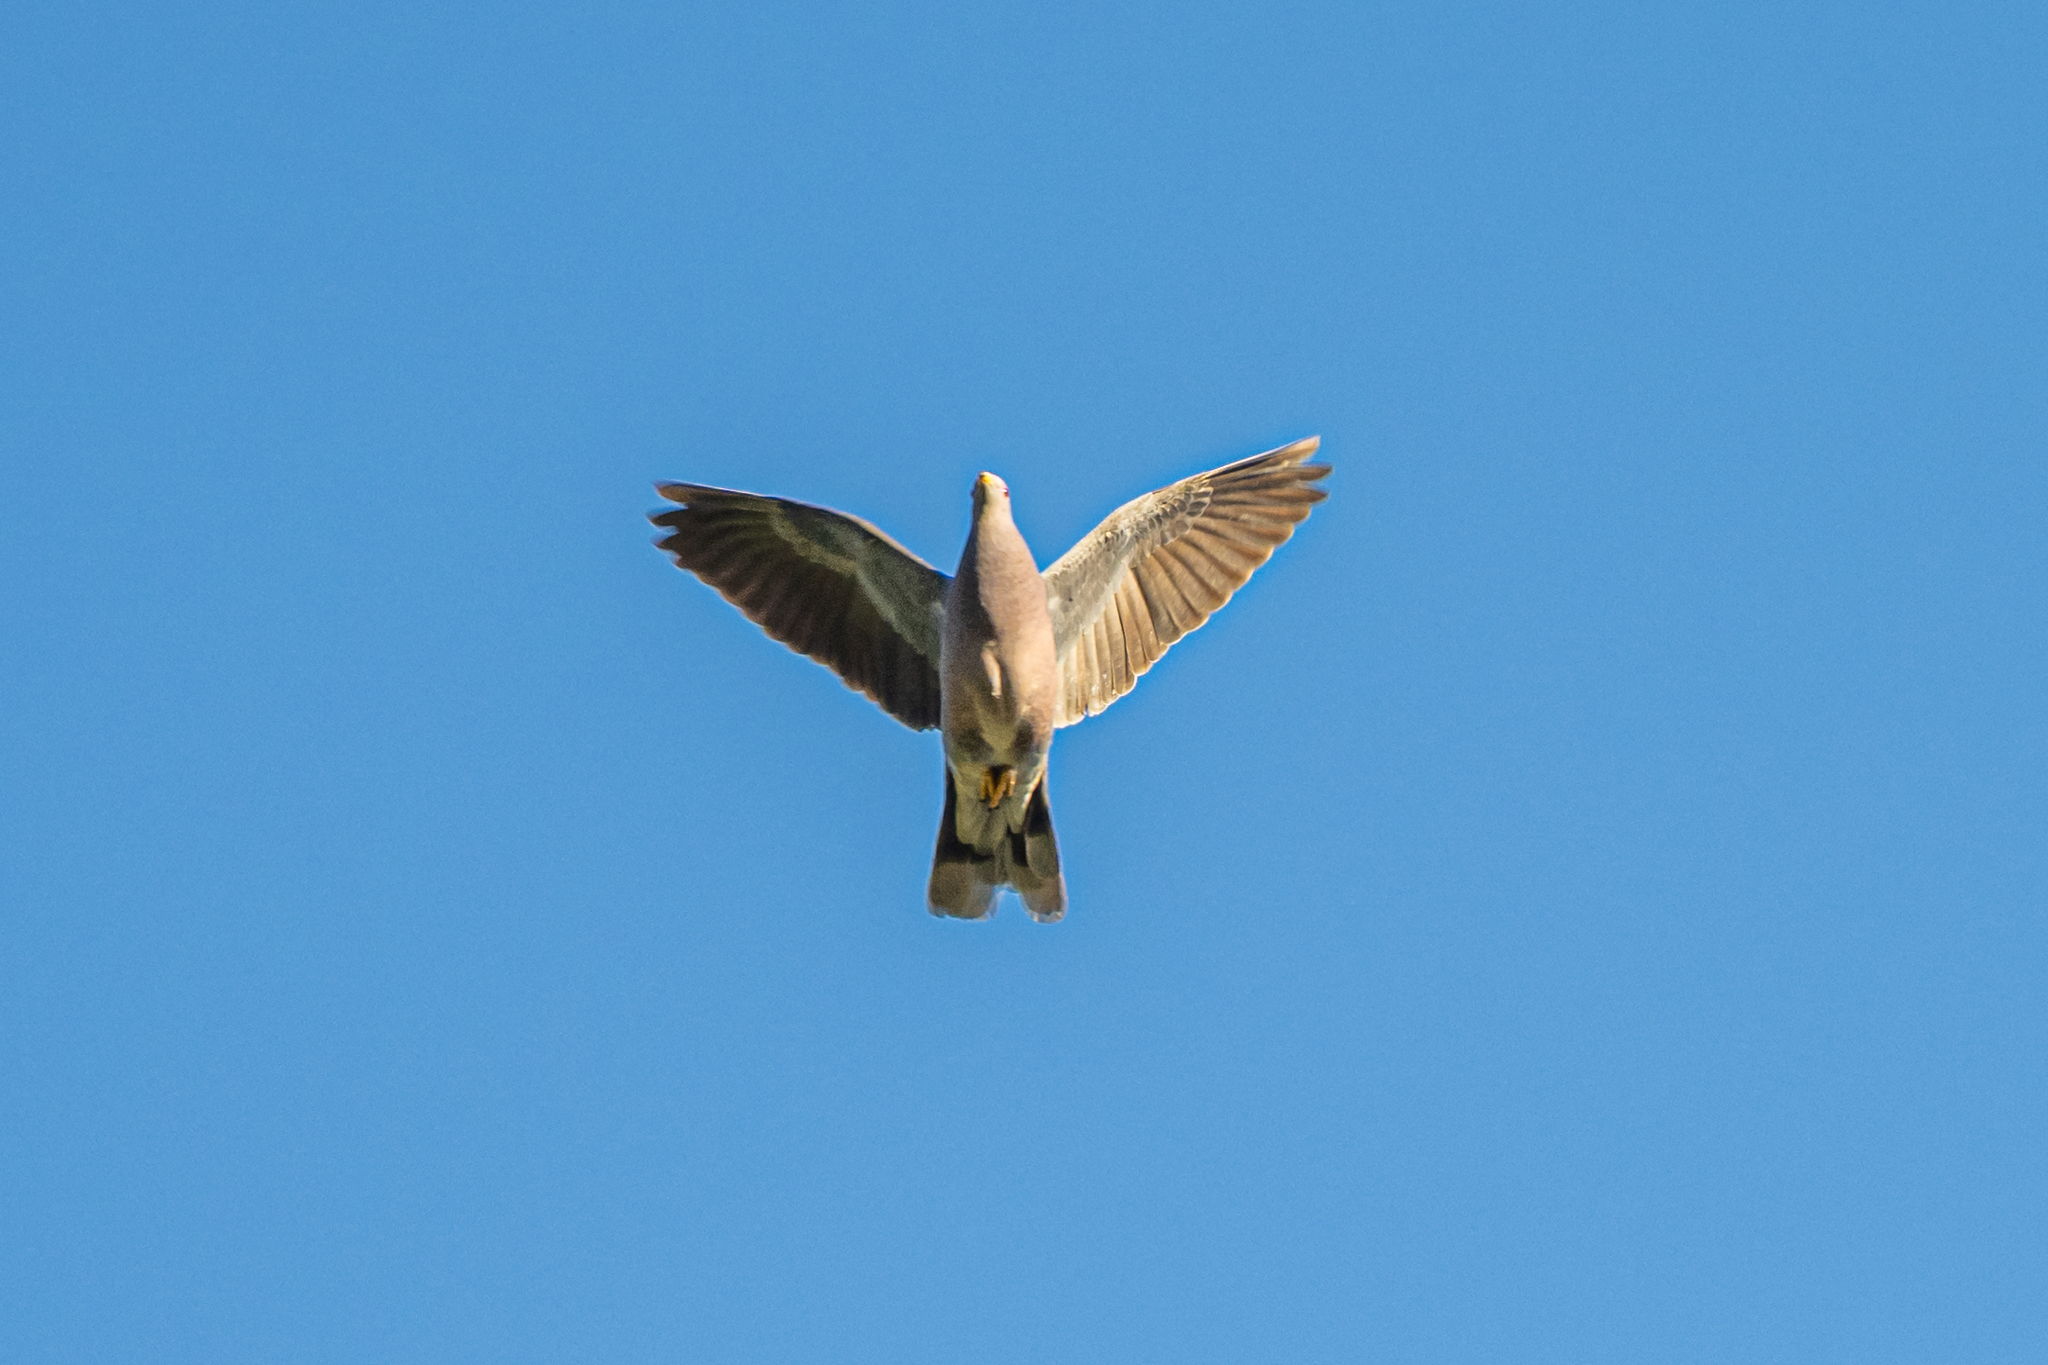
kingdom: Animalia
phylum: Chordata
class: Aves
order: Columbiformes
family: Columbidae
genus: Patagioenas
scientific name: Patagioenas fasciata
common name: Band-tailed pigeon
